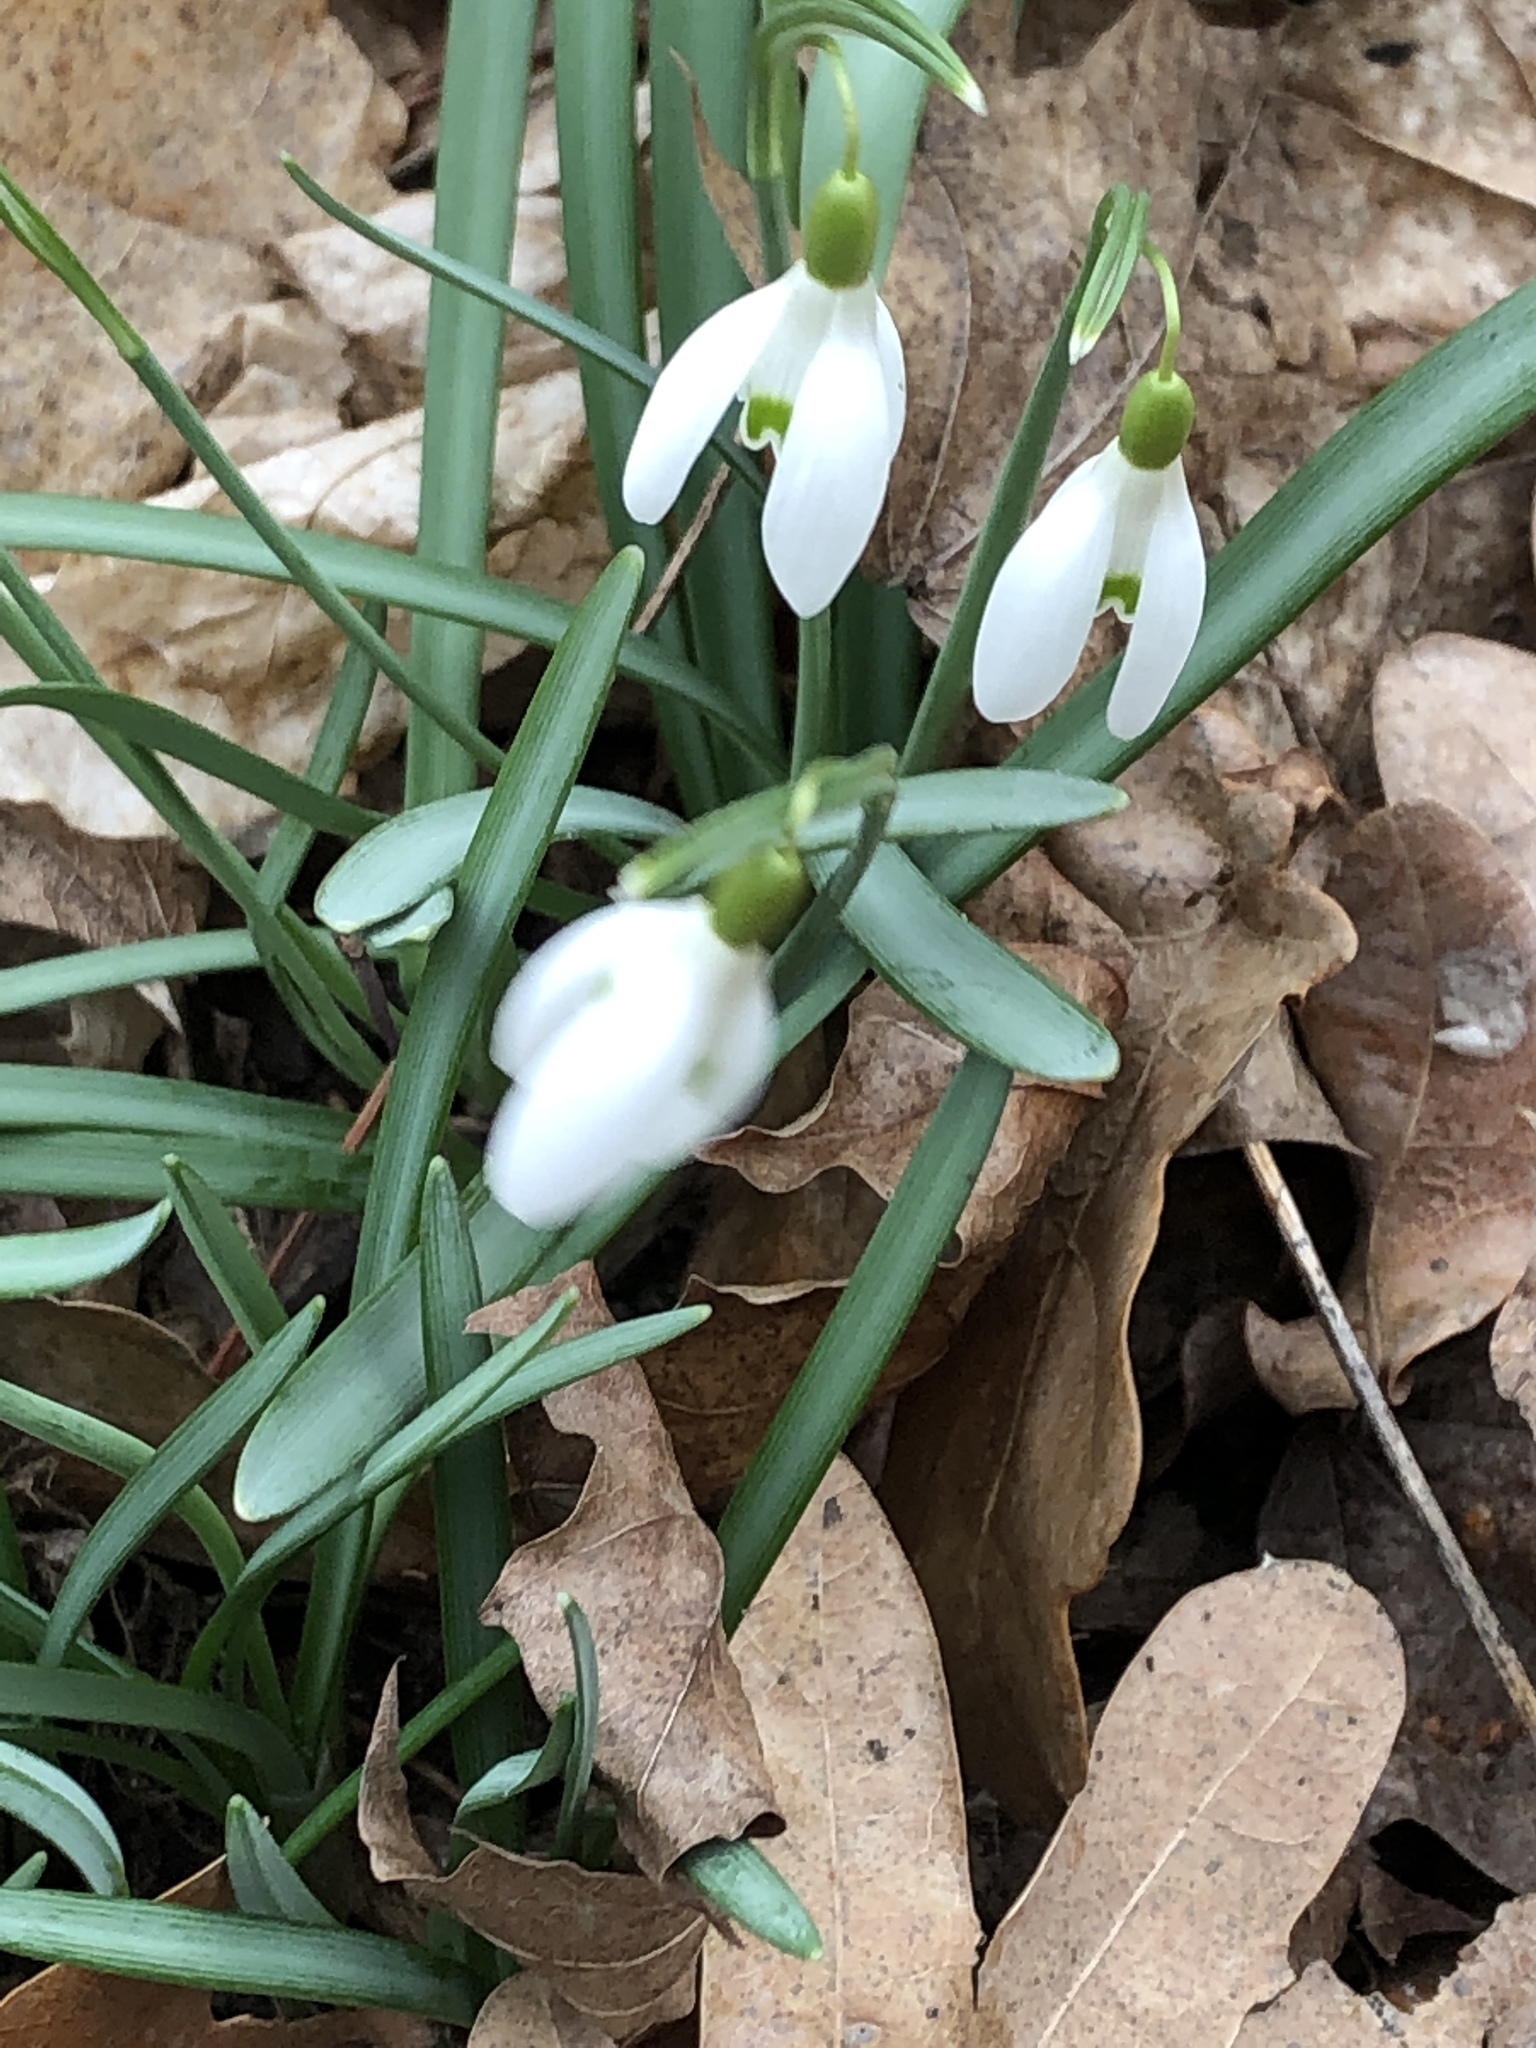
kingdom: Plantae
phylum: Tracheophyta
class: Liliopsida
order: Asparagales
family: Amaryllidaceae
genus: Galanthus
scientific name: Galanthus nivalis
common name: Snowdrop
